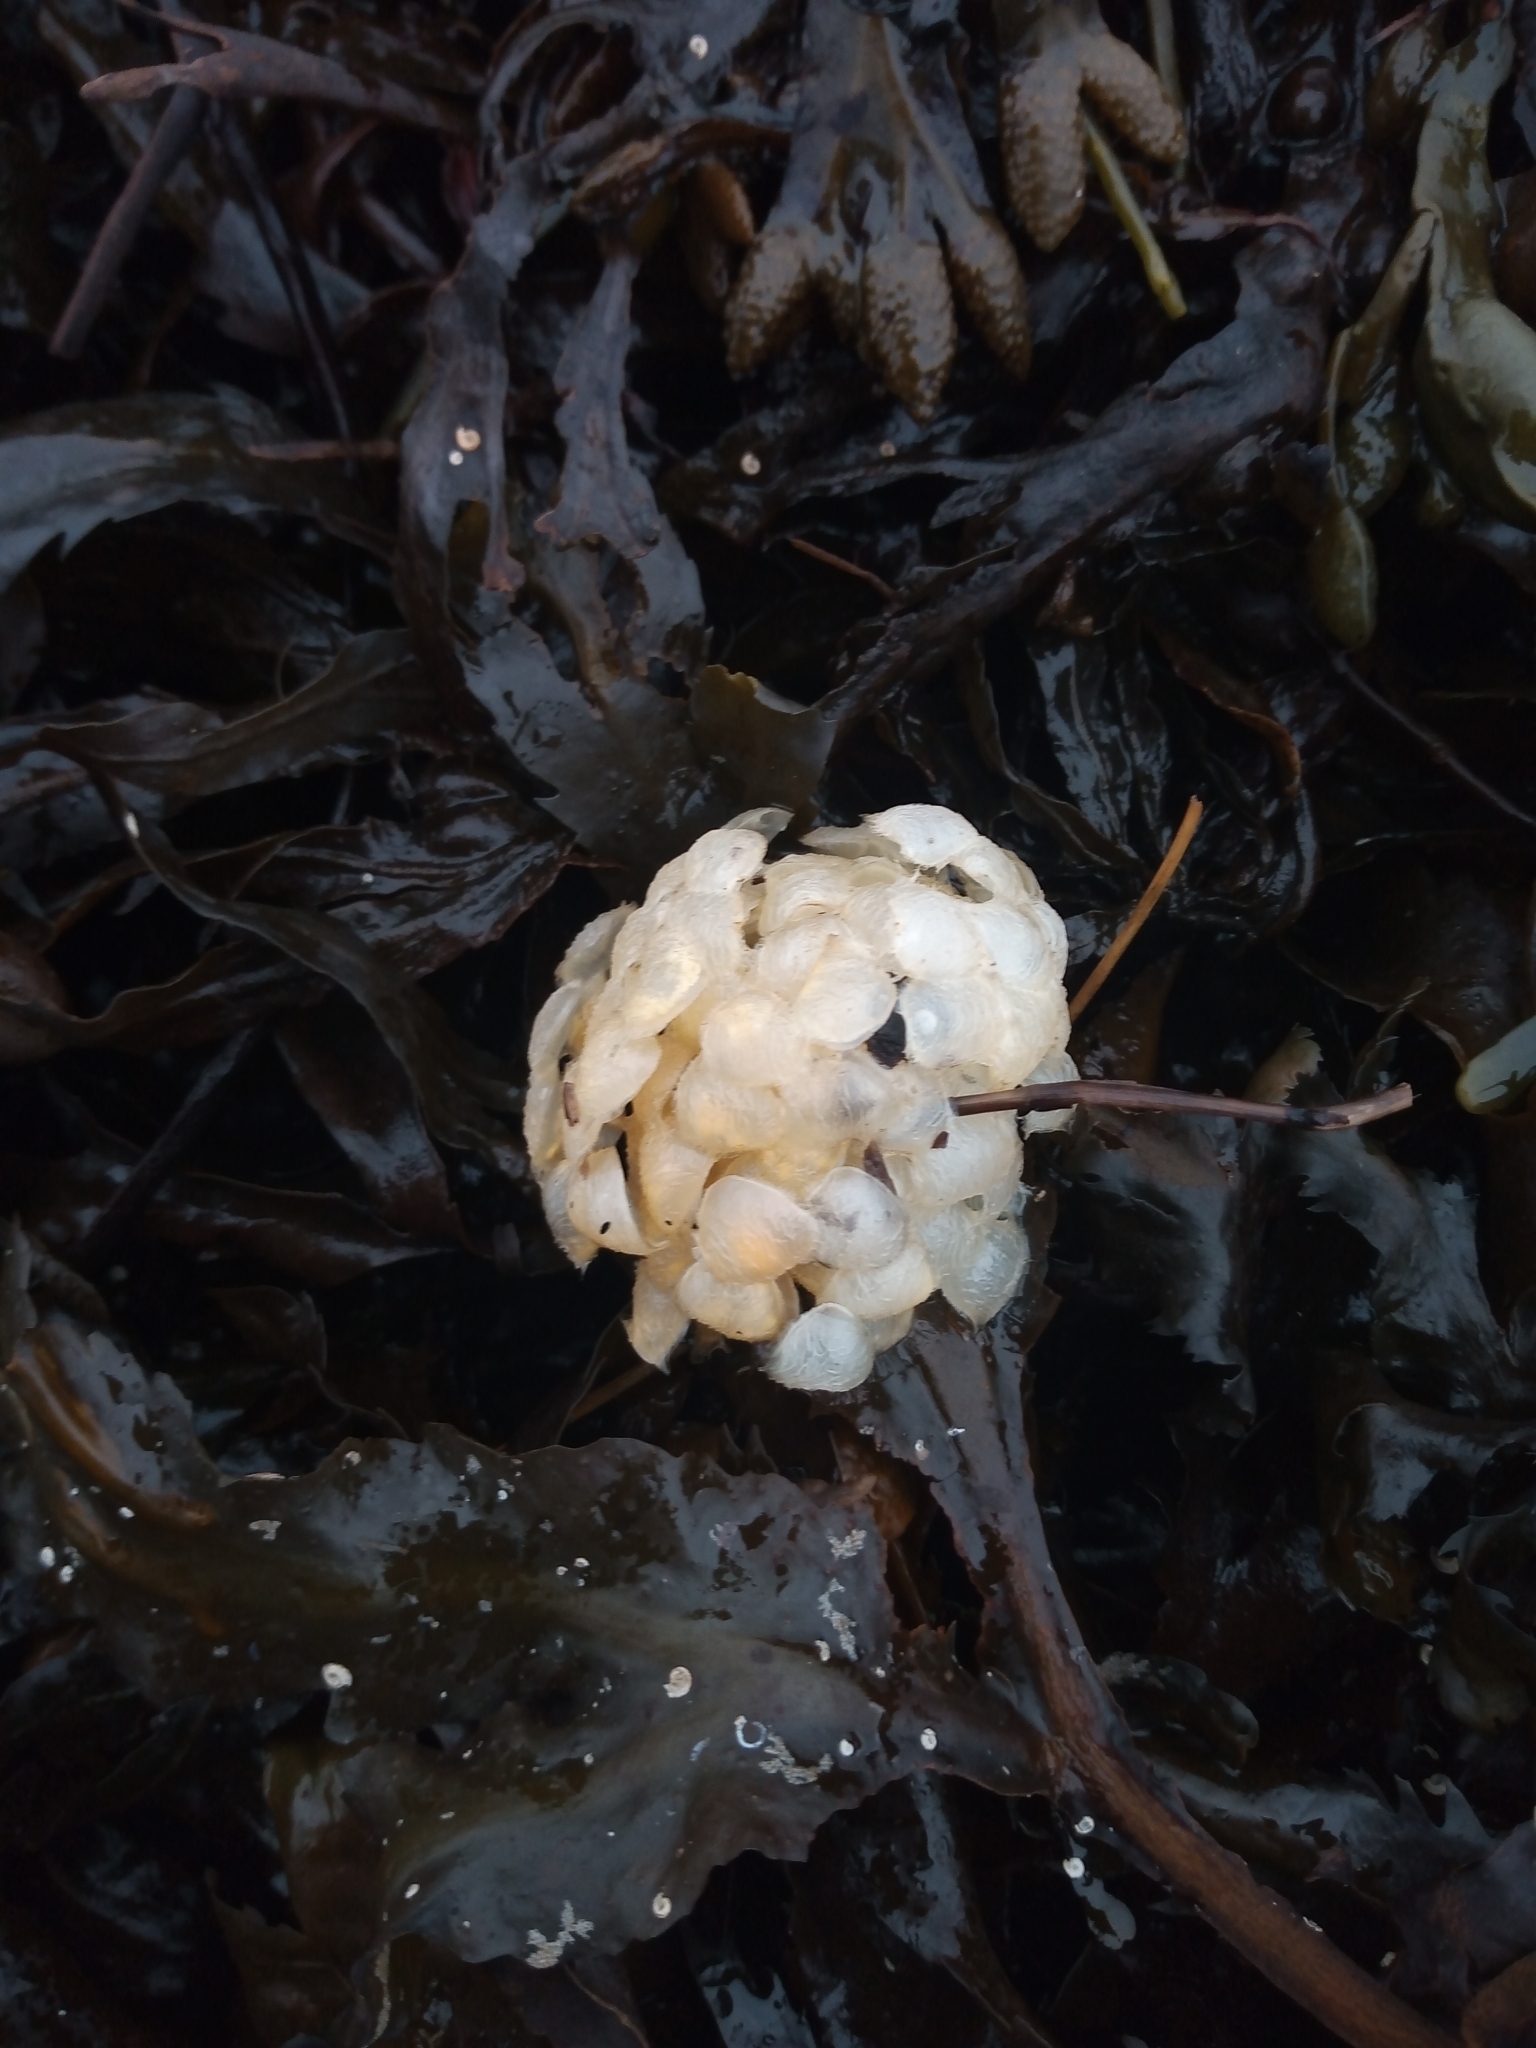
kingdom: Animalia
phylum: Mollusca
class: Gastropoda
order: Neogastropoda
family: Buccinidae
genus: Buccinum
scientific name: Buccinum undatum
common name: Common whelk
